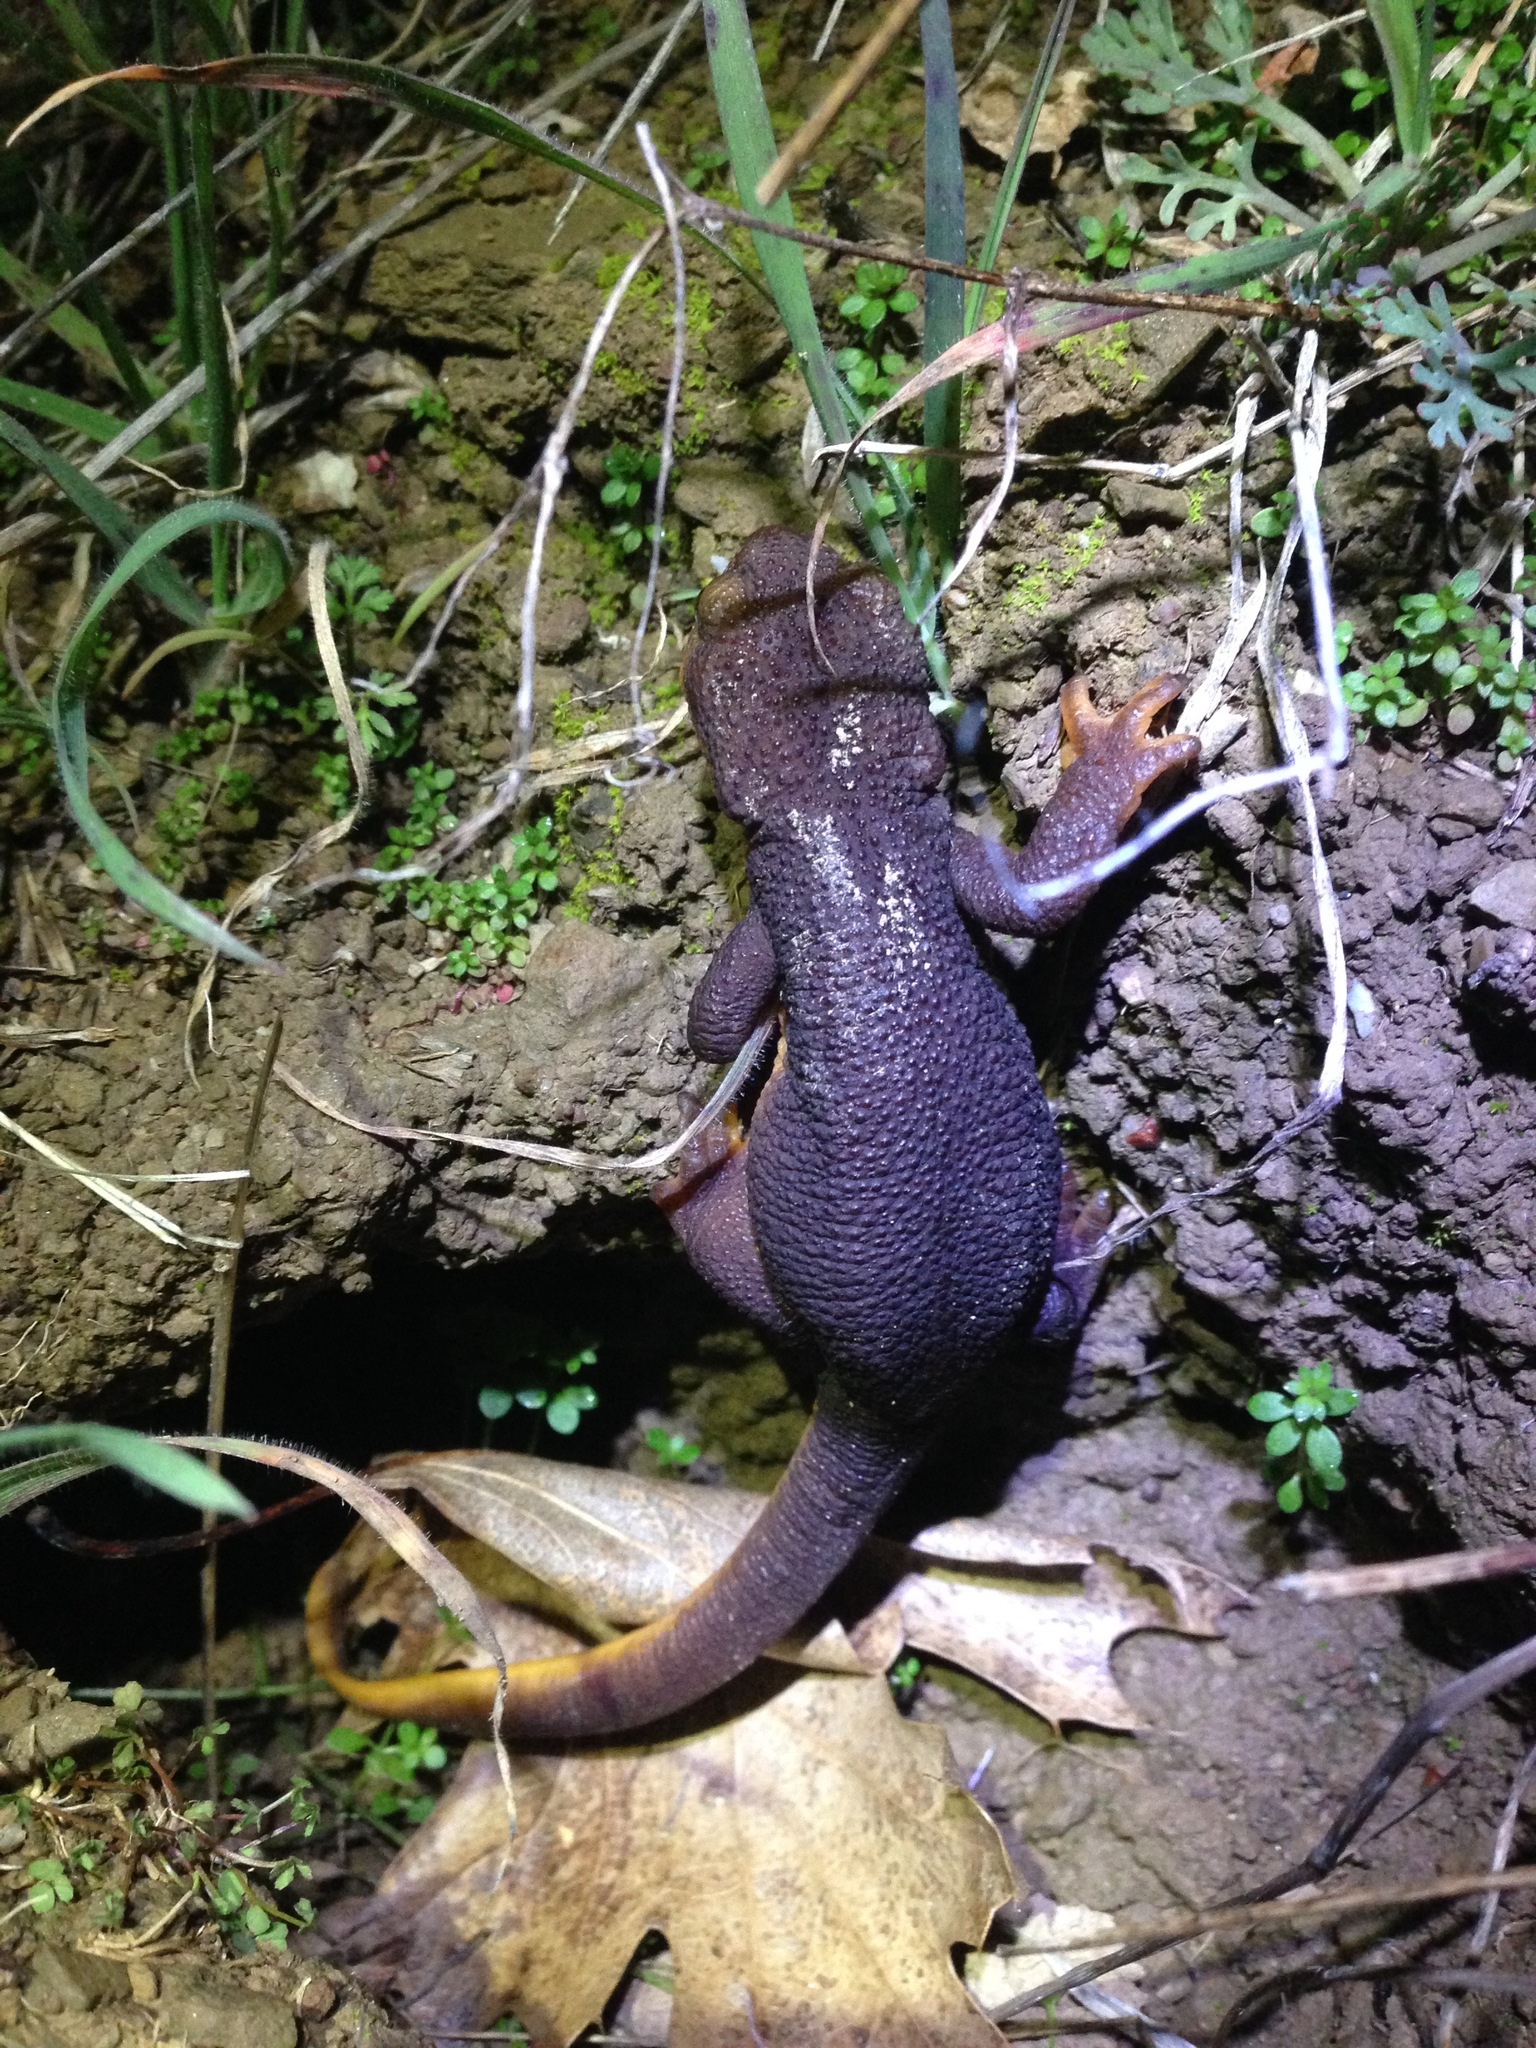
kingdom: Animalia
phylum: Chordata
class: Amphibia
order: Caudata
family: Salamandridae
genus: Taricha
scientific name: Taricha torosa
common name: California newt
